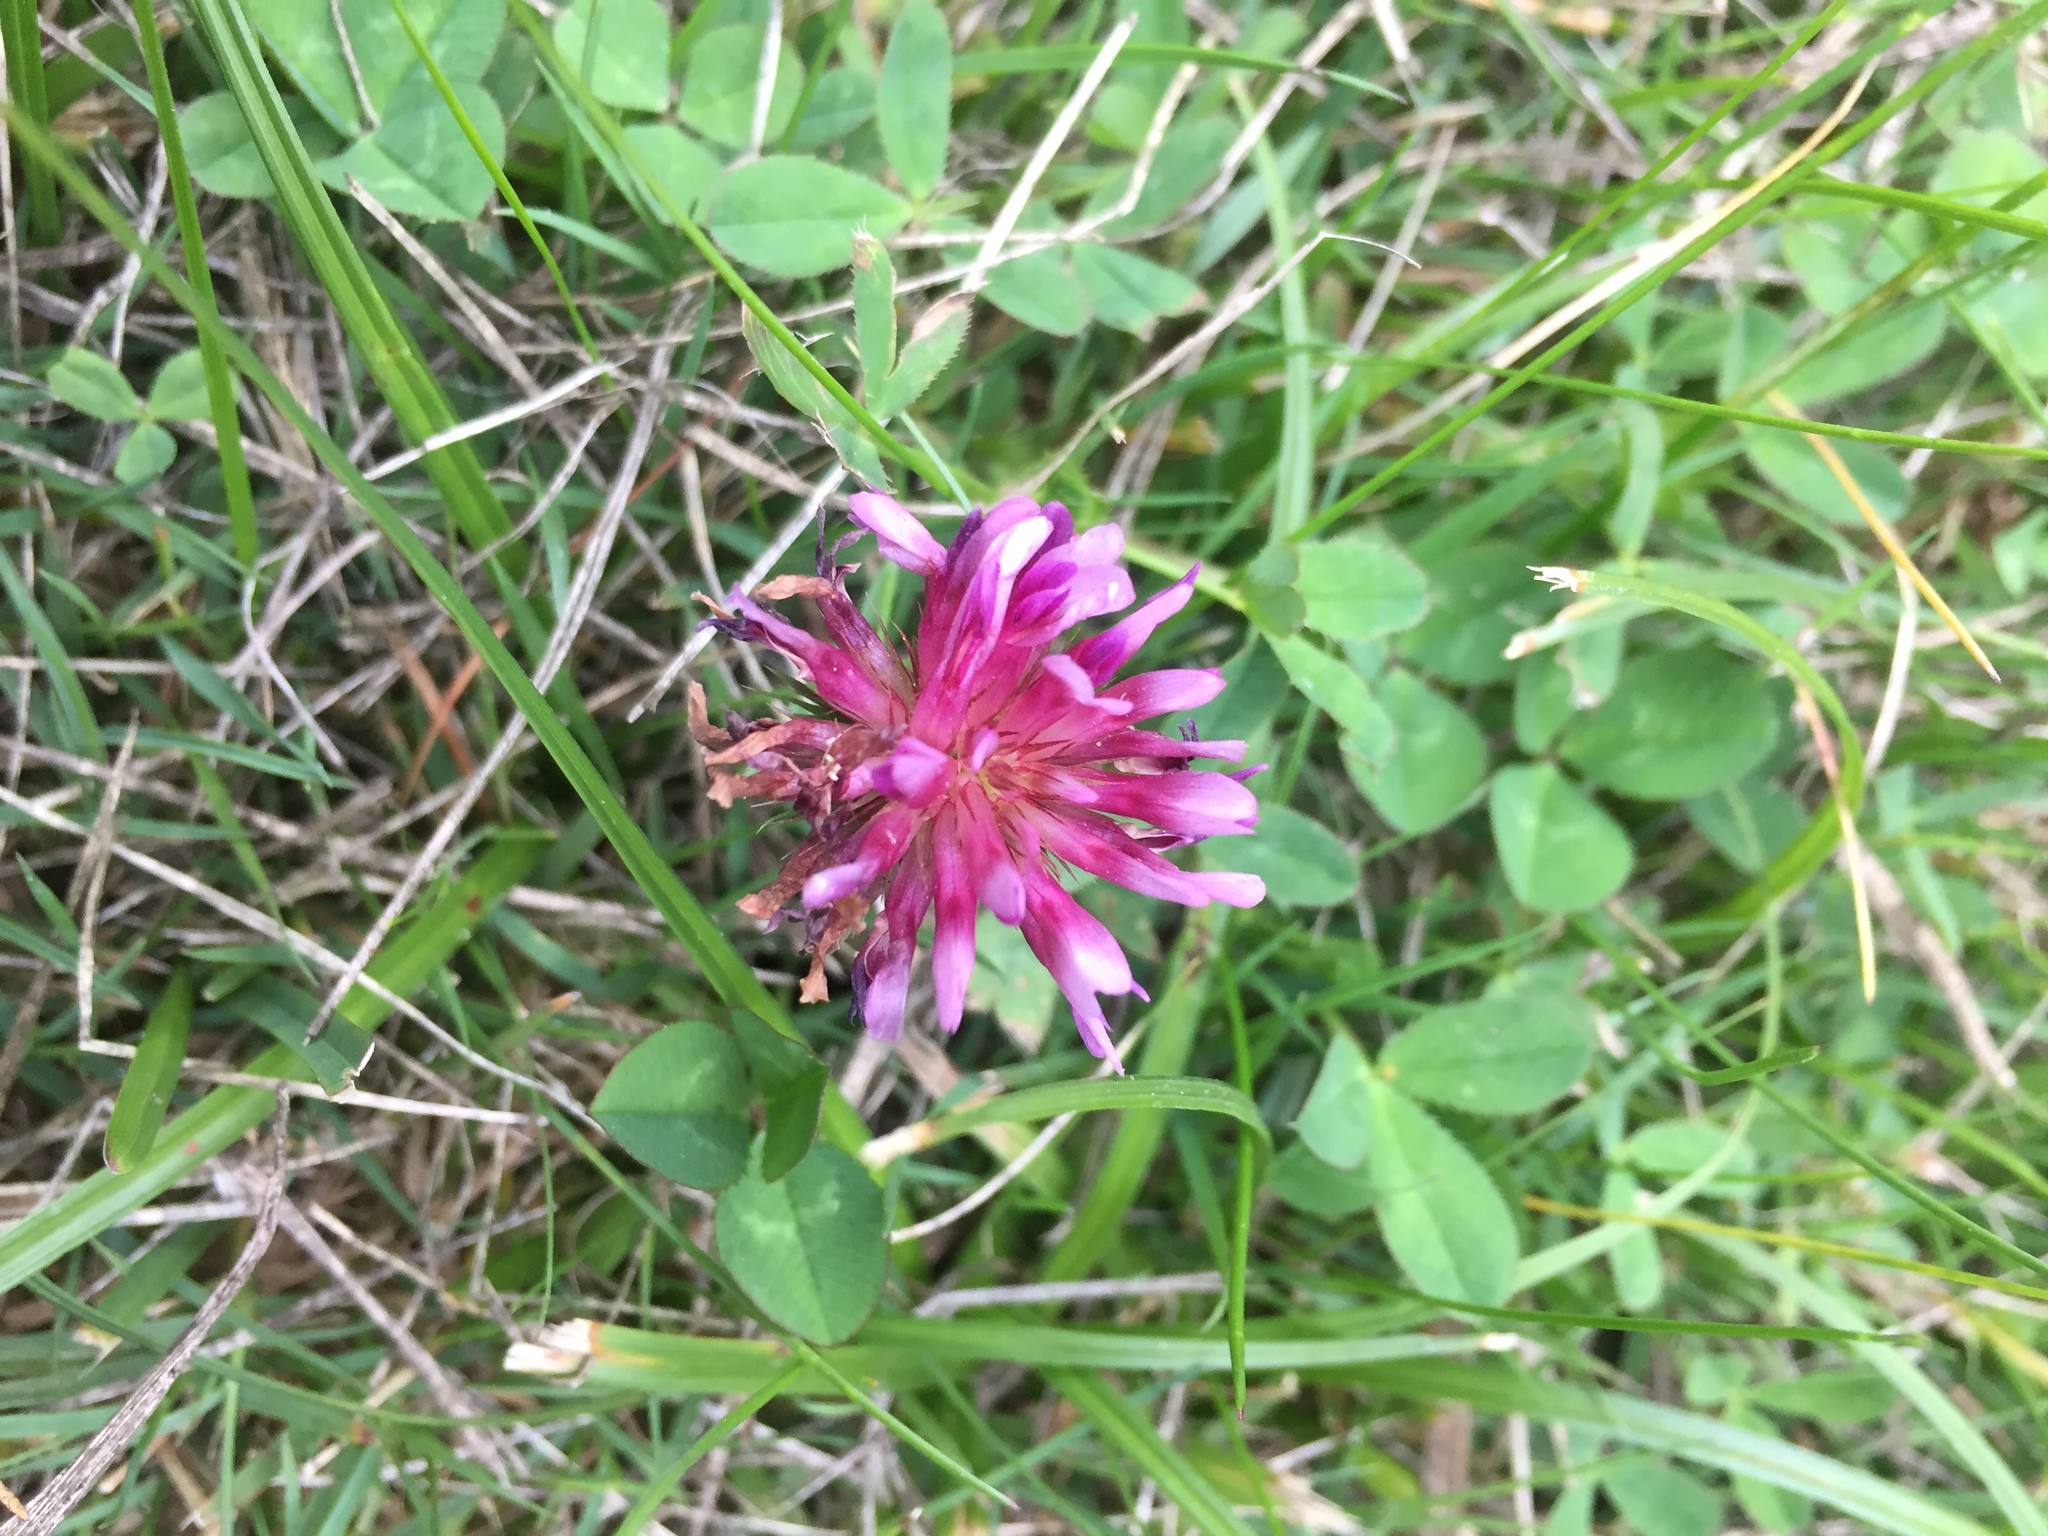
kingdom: Plantae
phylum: Tracheophyta
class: Magnoliopsida
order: Fabales
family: Fabaceae
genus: Trifolium
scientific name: Trifolium wormskioldii
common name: Springbank clover
